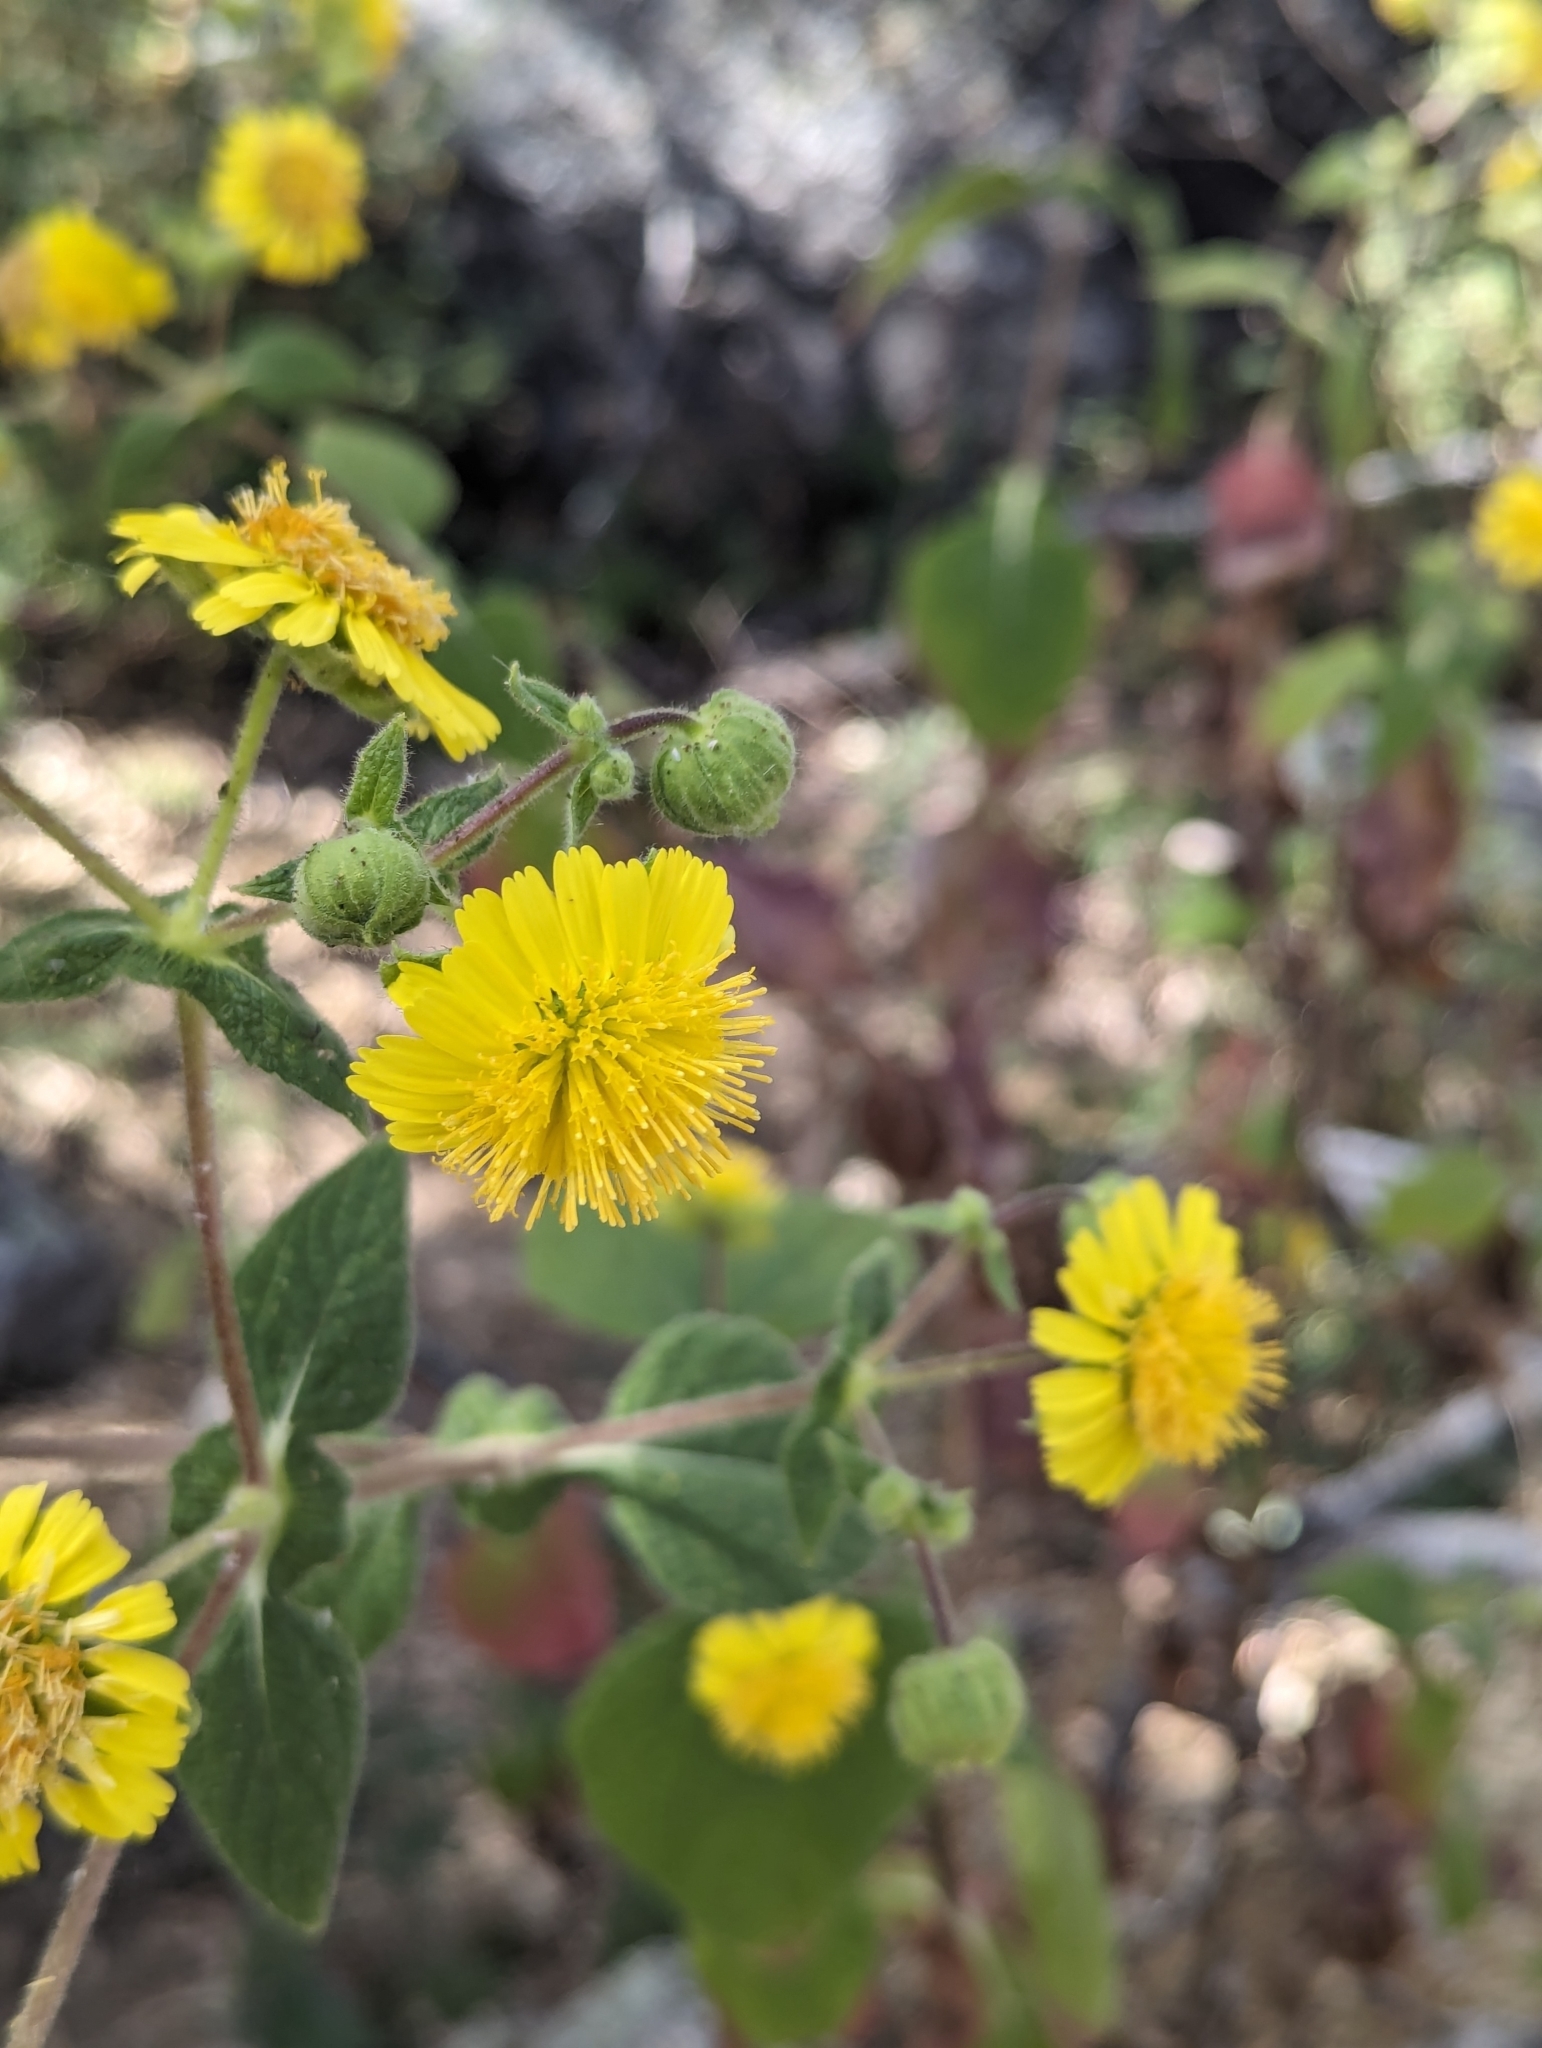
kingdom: Plantae
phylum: Tracheophyta
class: Magnoliopsida
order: Asterales
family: Asteraceae
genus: Rumfordia
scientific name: Rumfordia connata
